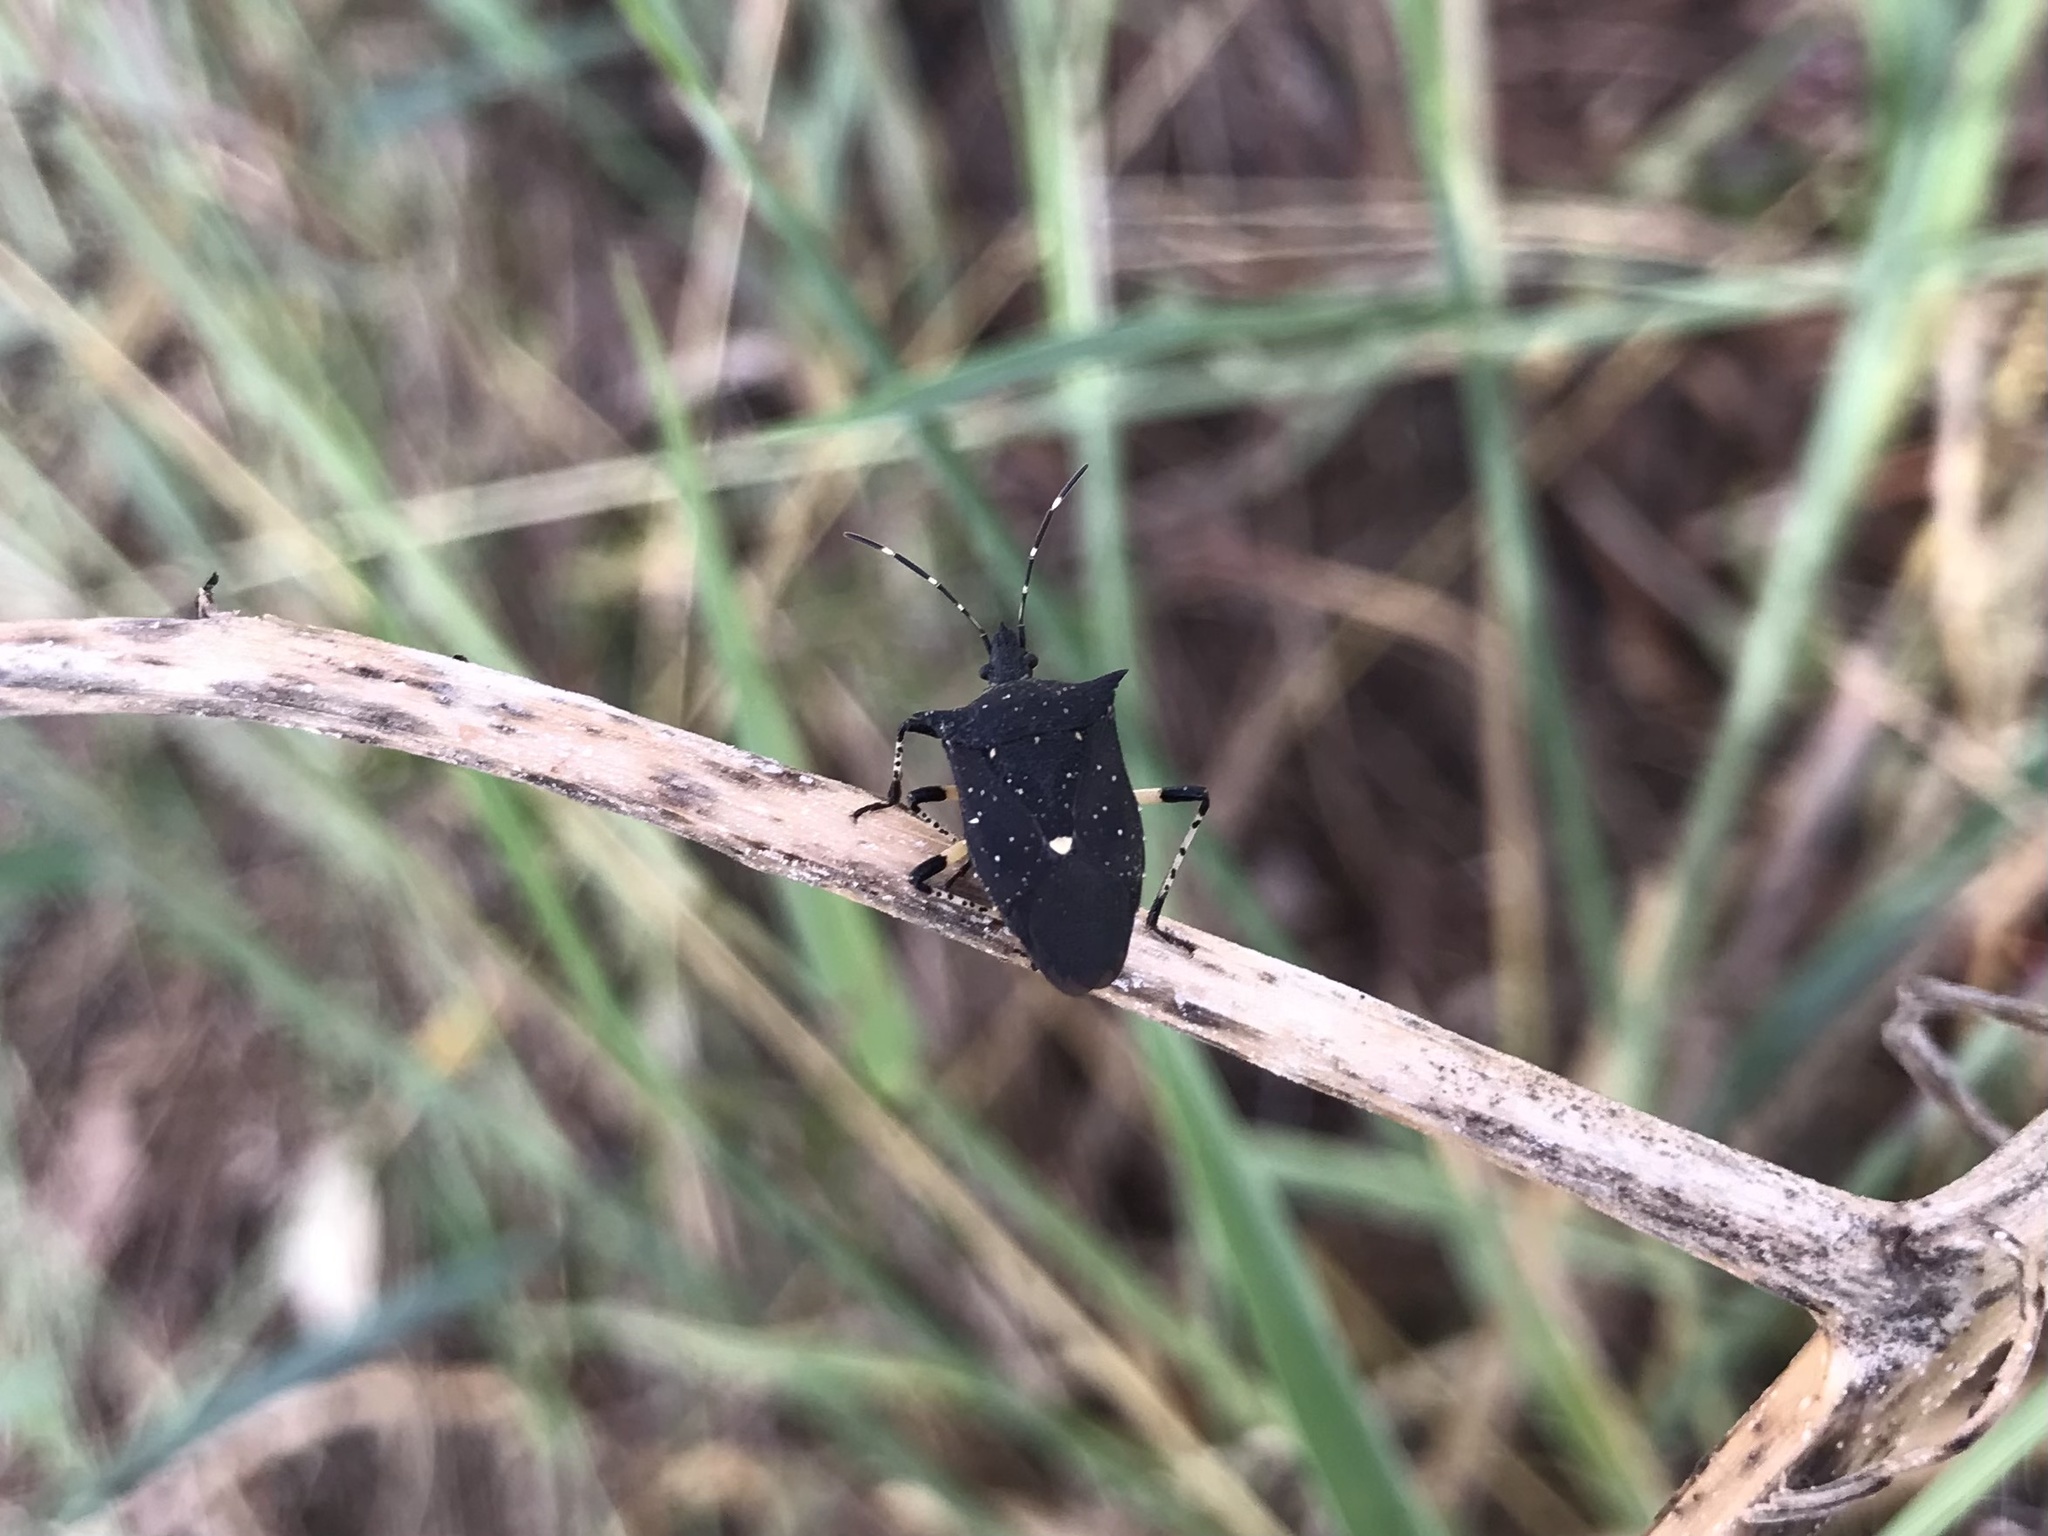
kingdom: Animalia
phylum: Arthropoda
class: Insecta
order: Hemiptera
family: Pentatomidae
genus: Proxys
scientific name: Proxys punctulatus
